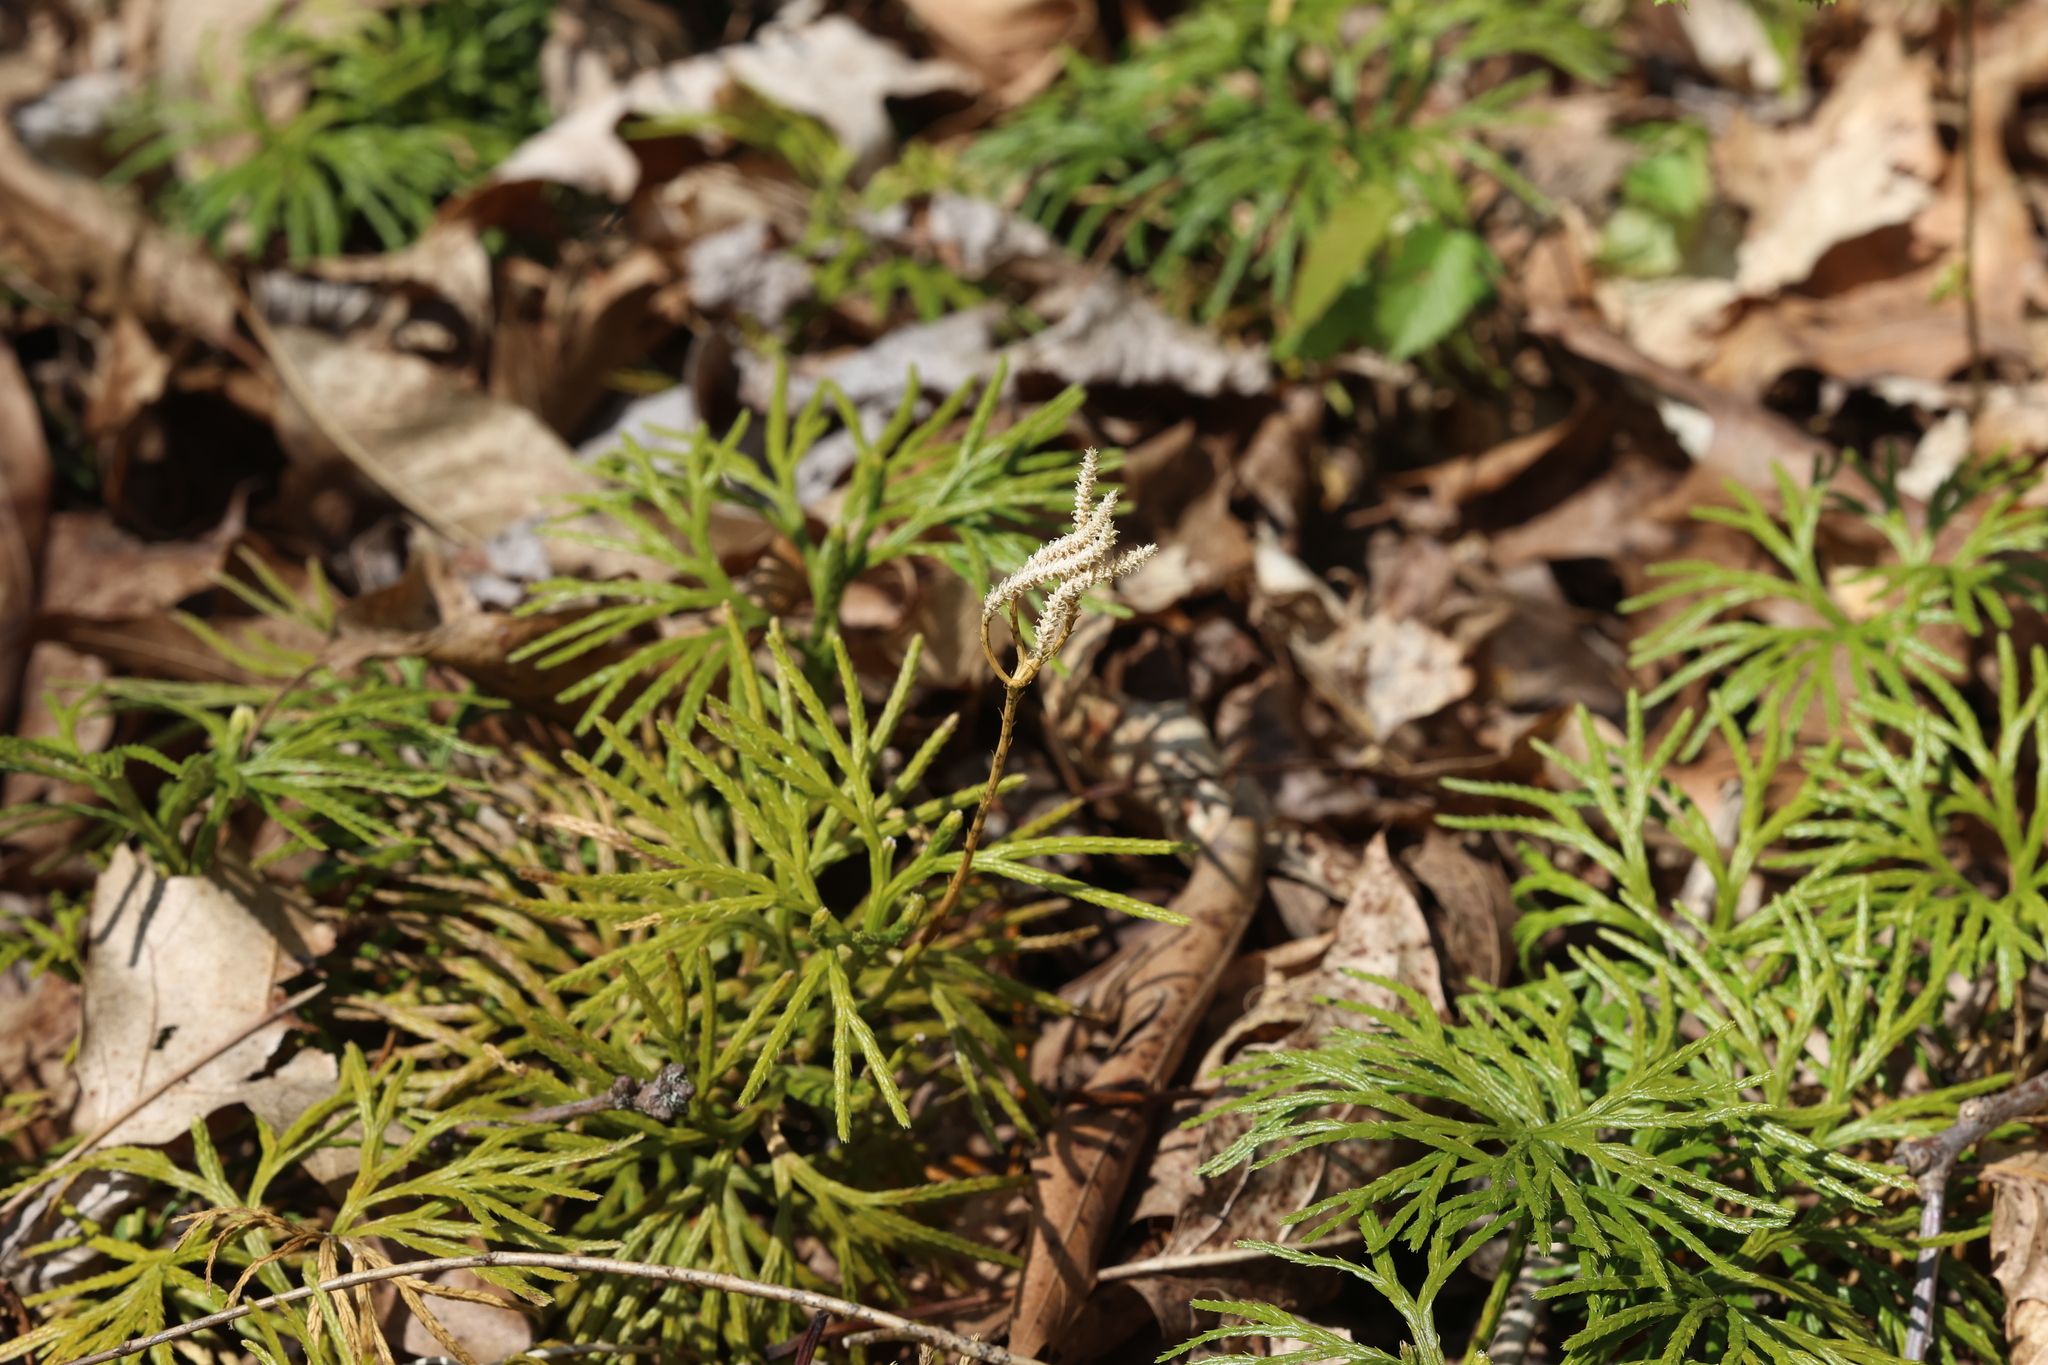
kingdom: Plantae
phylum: Tracheophyta
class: Lycopodiopsida
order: Lycopodiales
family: Lycopodiaceae
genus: Diphasiastrum
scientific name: Diphasiastrum digitatum
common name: Southern running-pine
